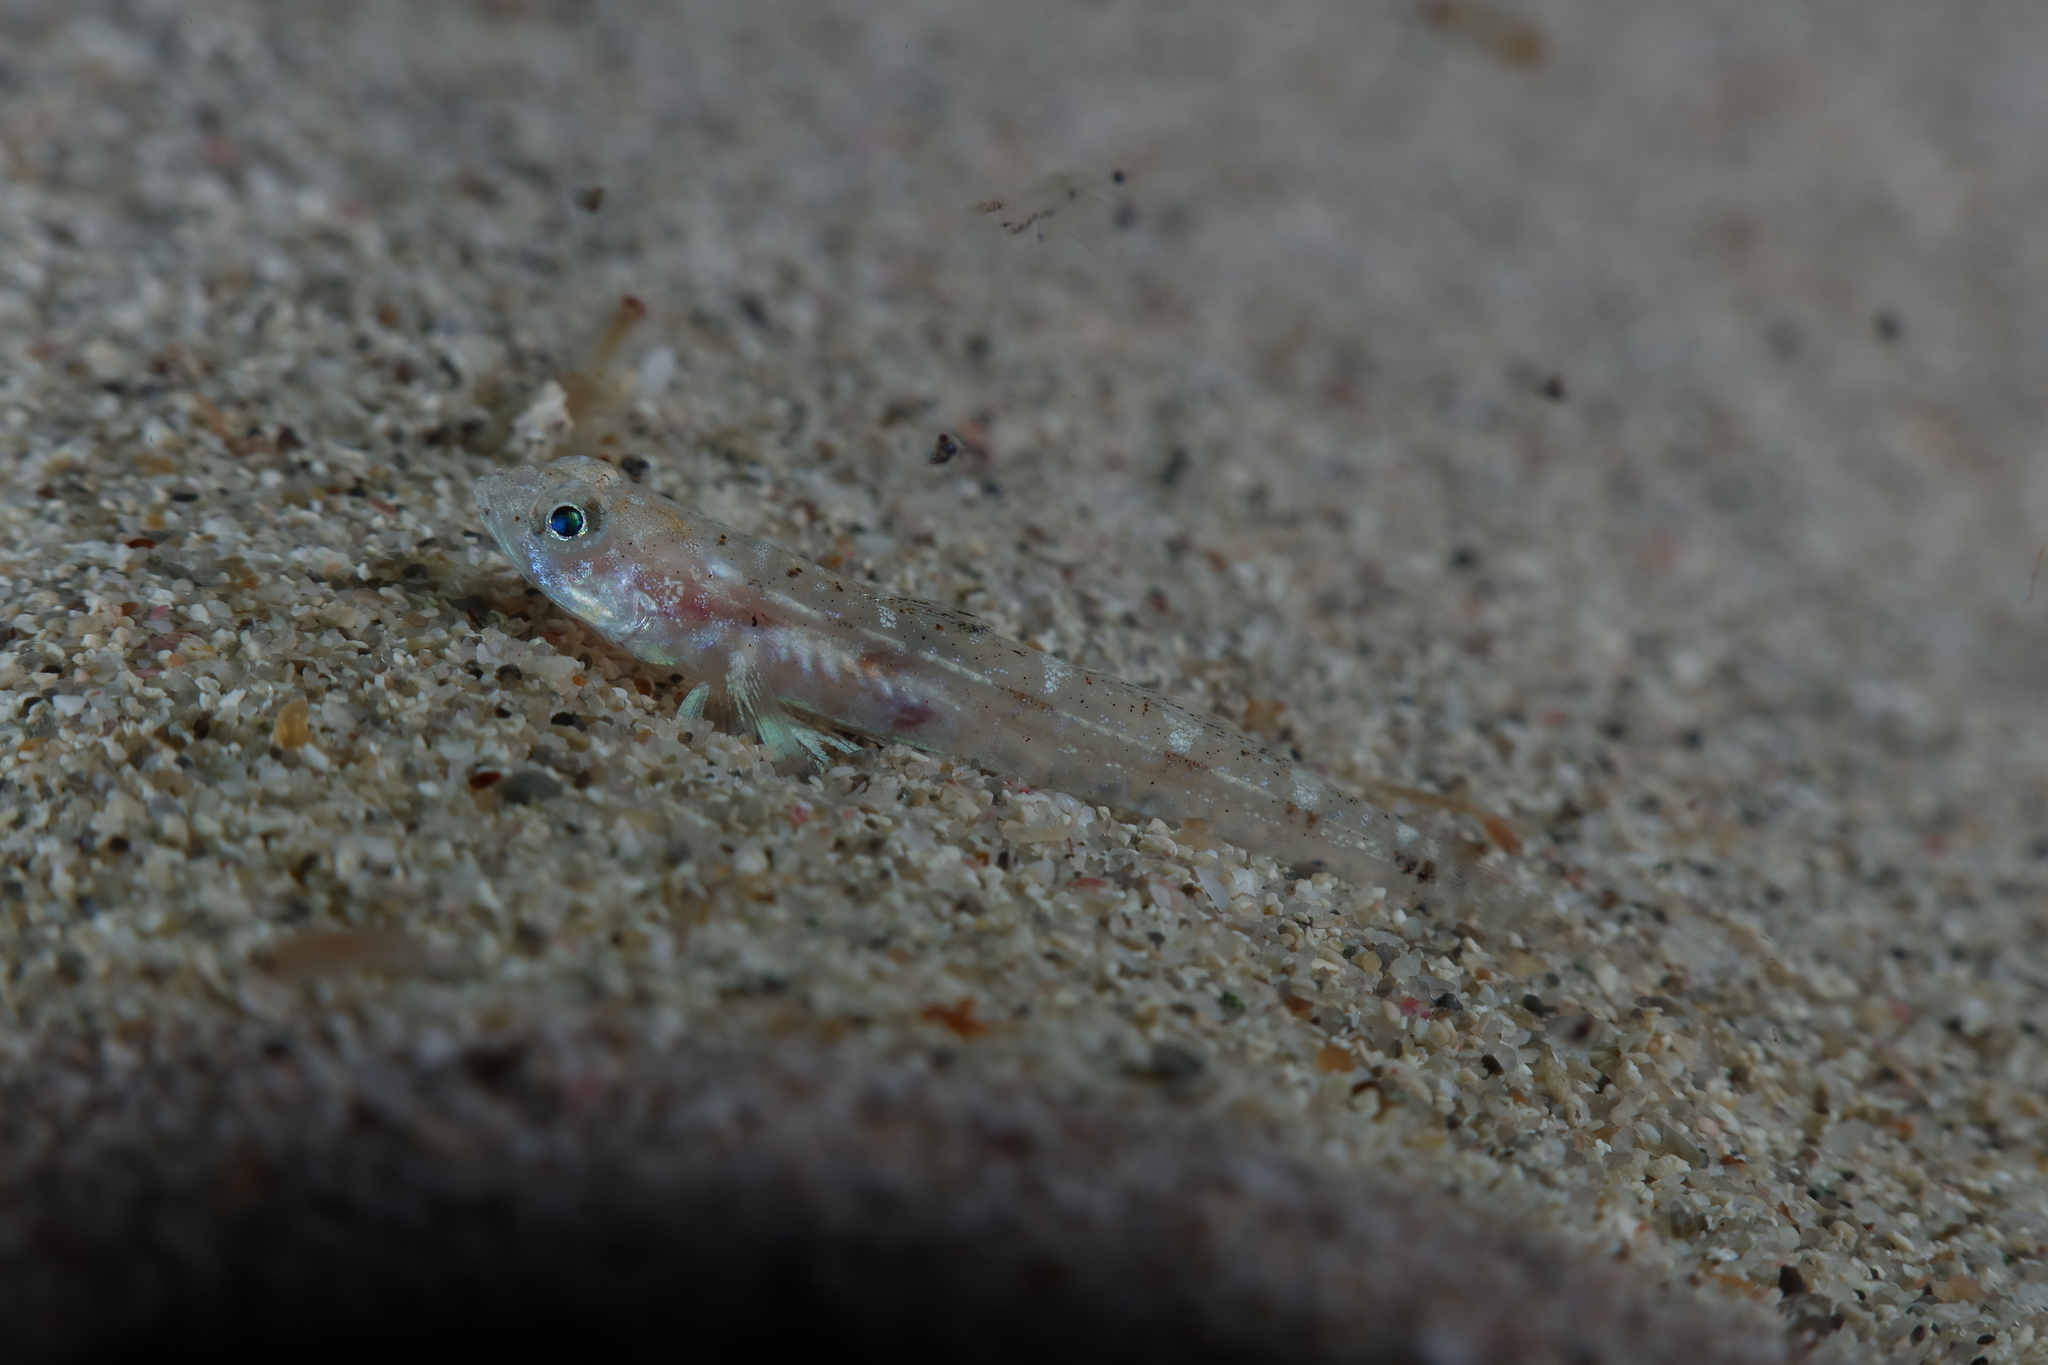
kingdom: Animalia
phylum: Chordata
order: Perciformes
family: Gobiidae
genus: Pomatoschistus
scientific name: Pomatoschistus marmoratus
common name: Marbled goby
